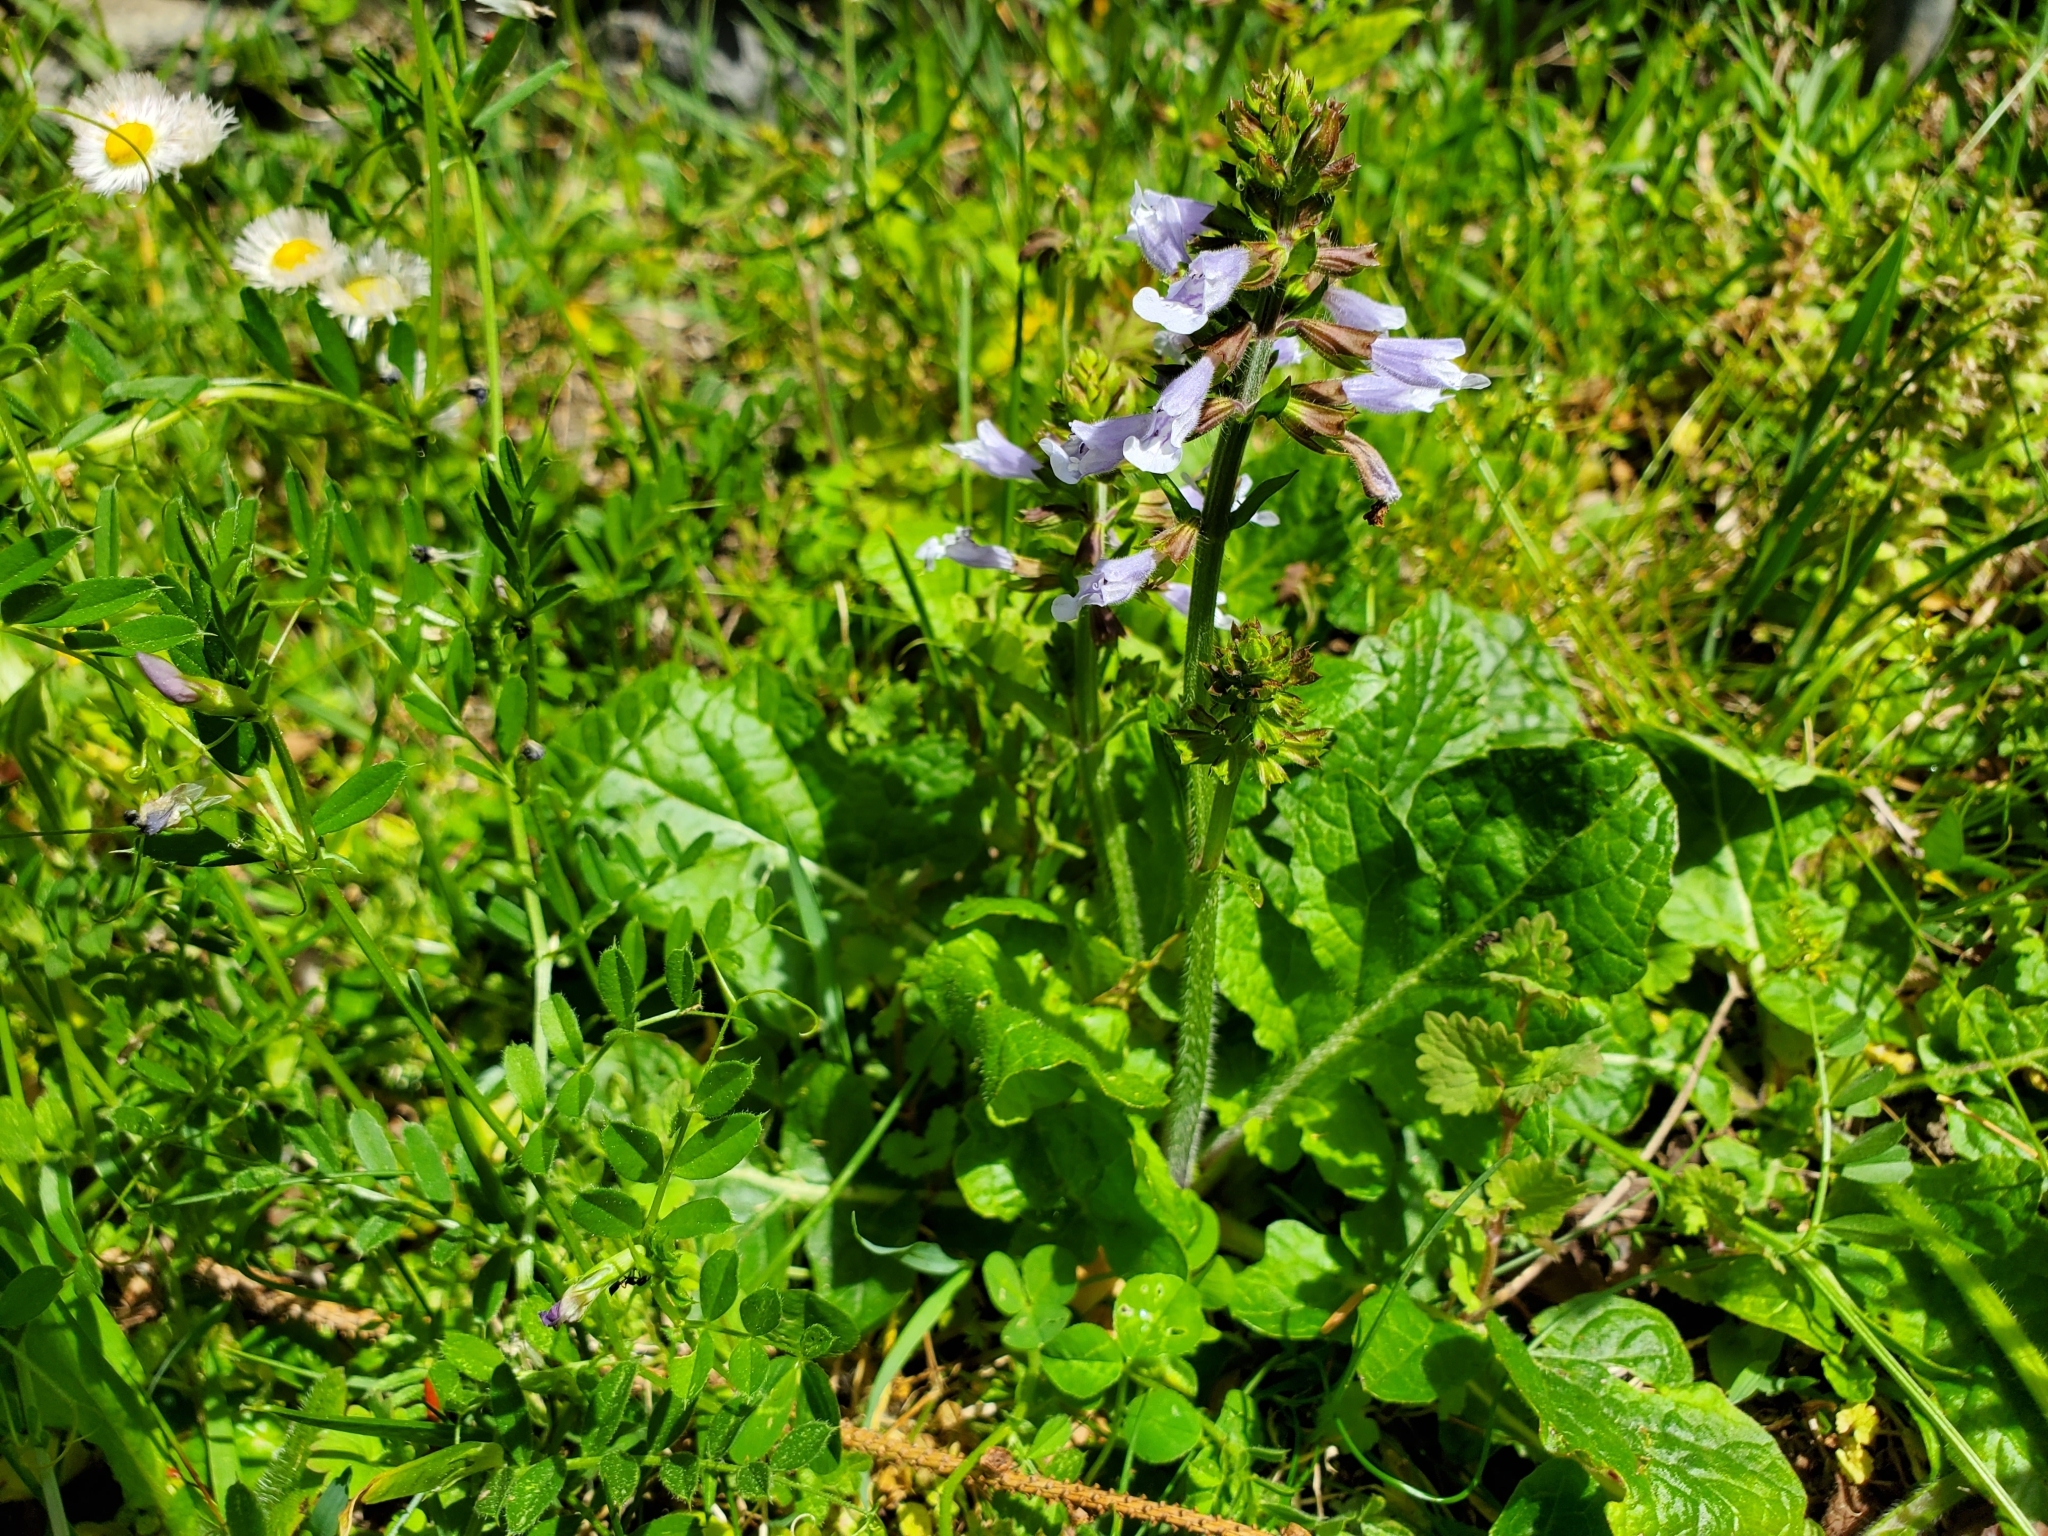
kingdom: Plantae
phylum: Tracheophyta
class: Magnoliopsida
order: Lamiales
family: Lamiaceae
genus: Salvia
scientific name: Salvia lyrata
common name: Cancerweed
